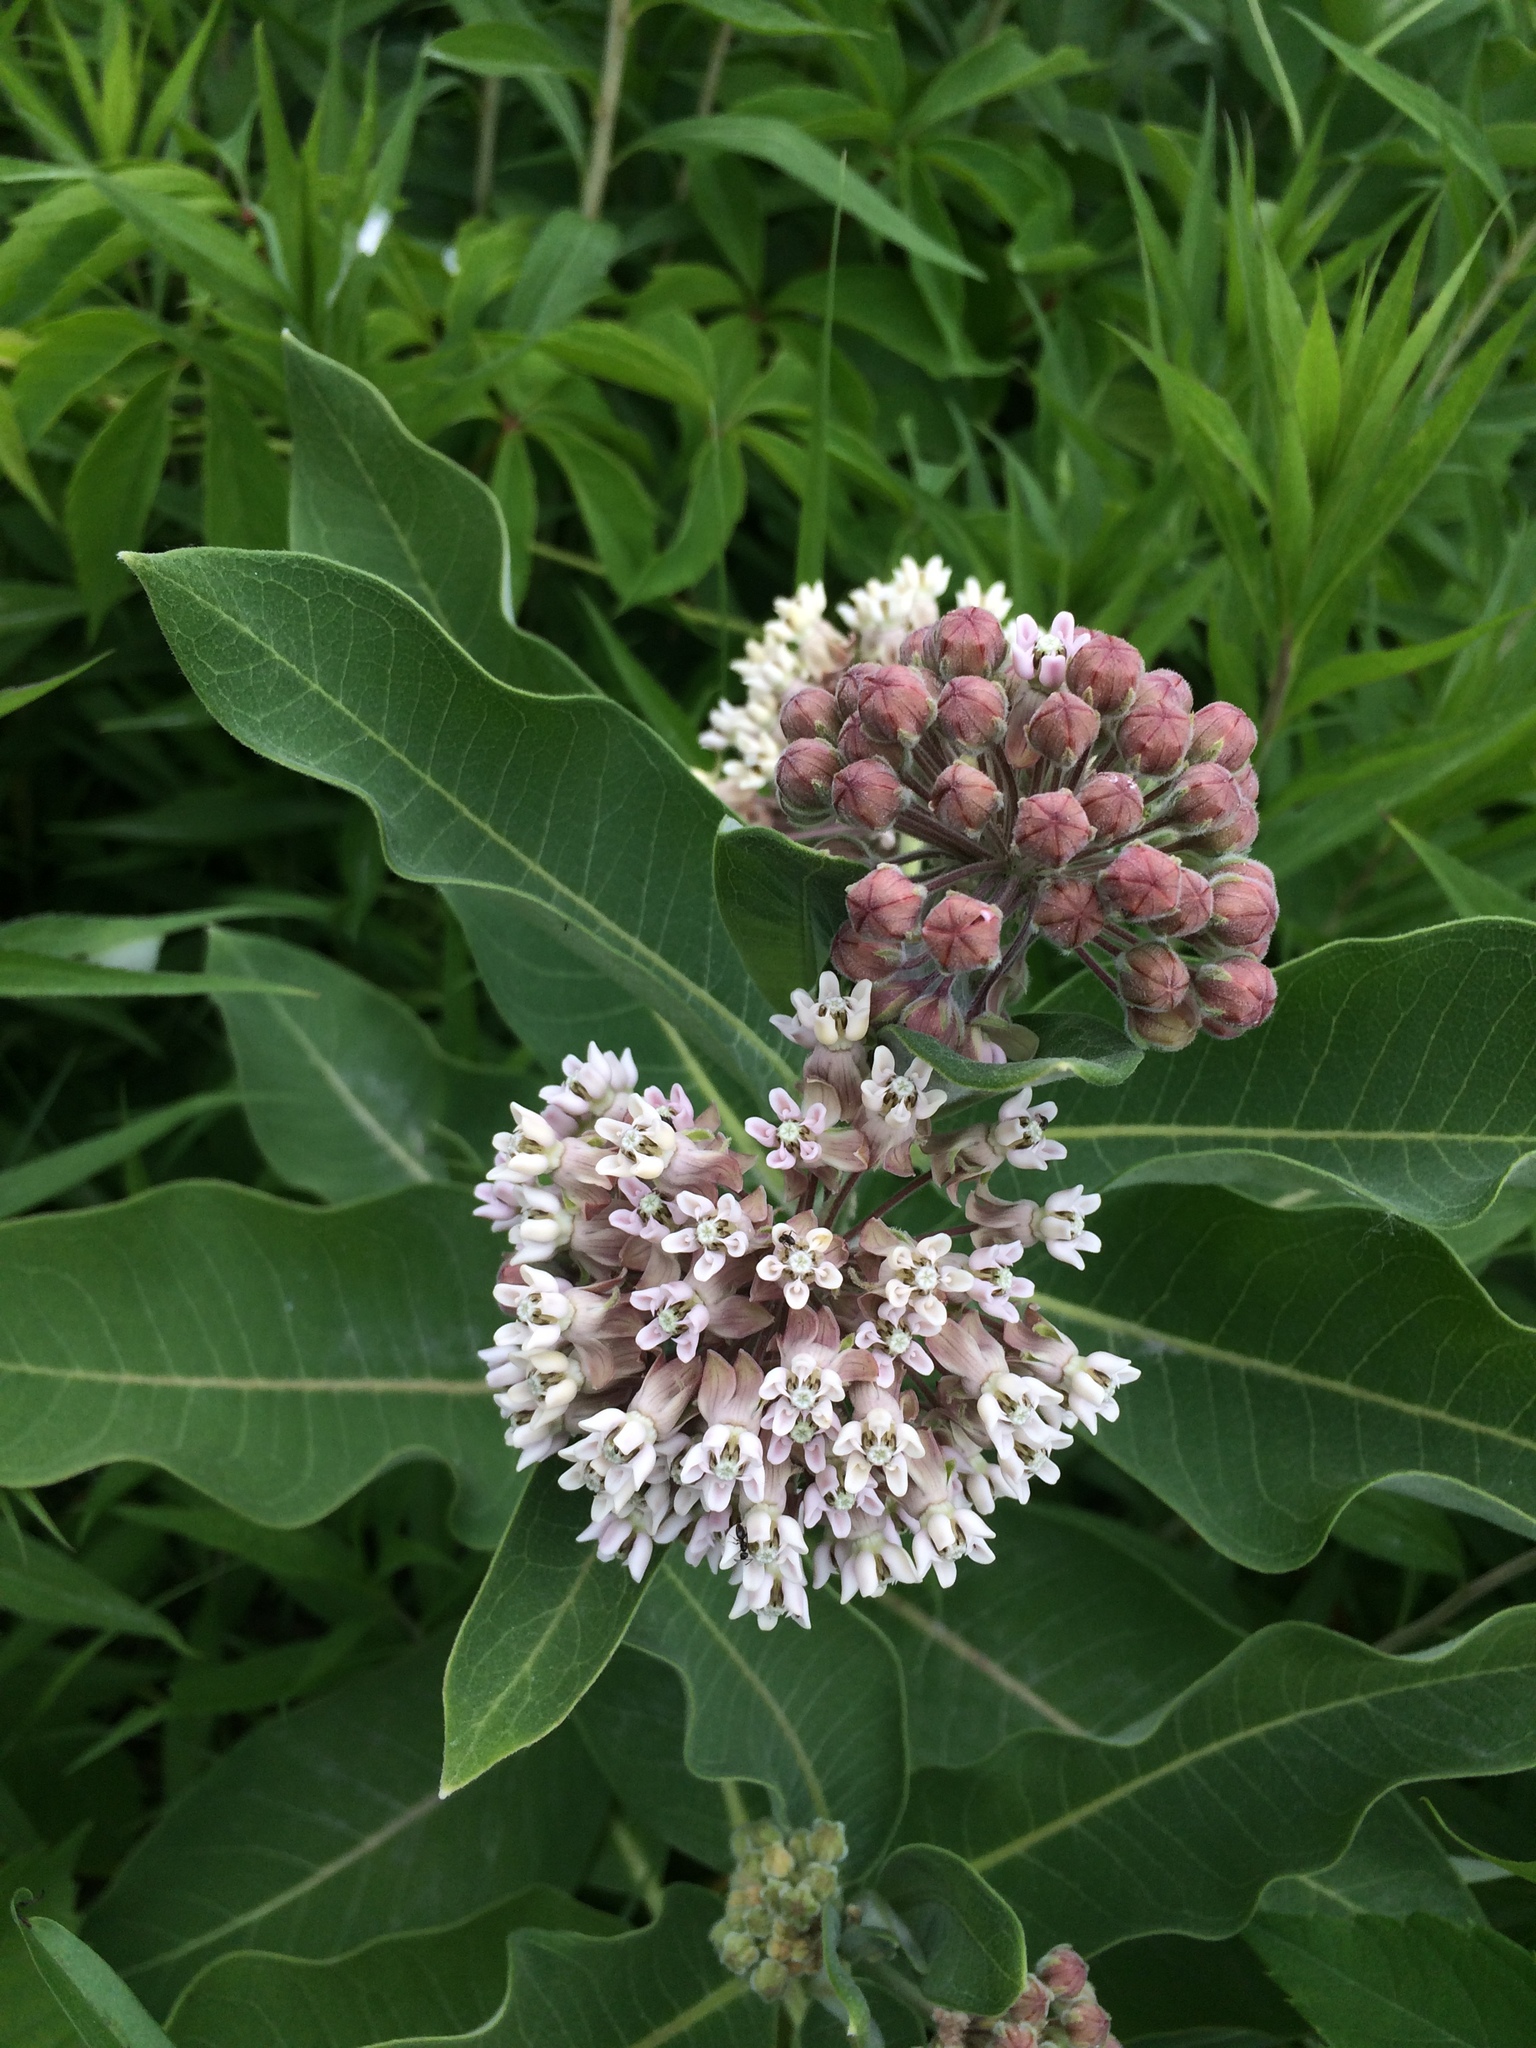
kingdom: Plantae
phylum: Tracheophyta
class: Magnoliopsida
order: Gentianales
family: Apocynaceae
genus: Asclepias
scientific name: Asclepias syriaca
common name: Common milkweed
